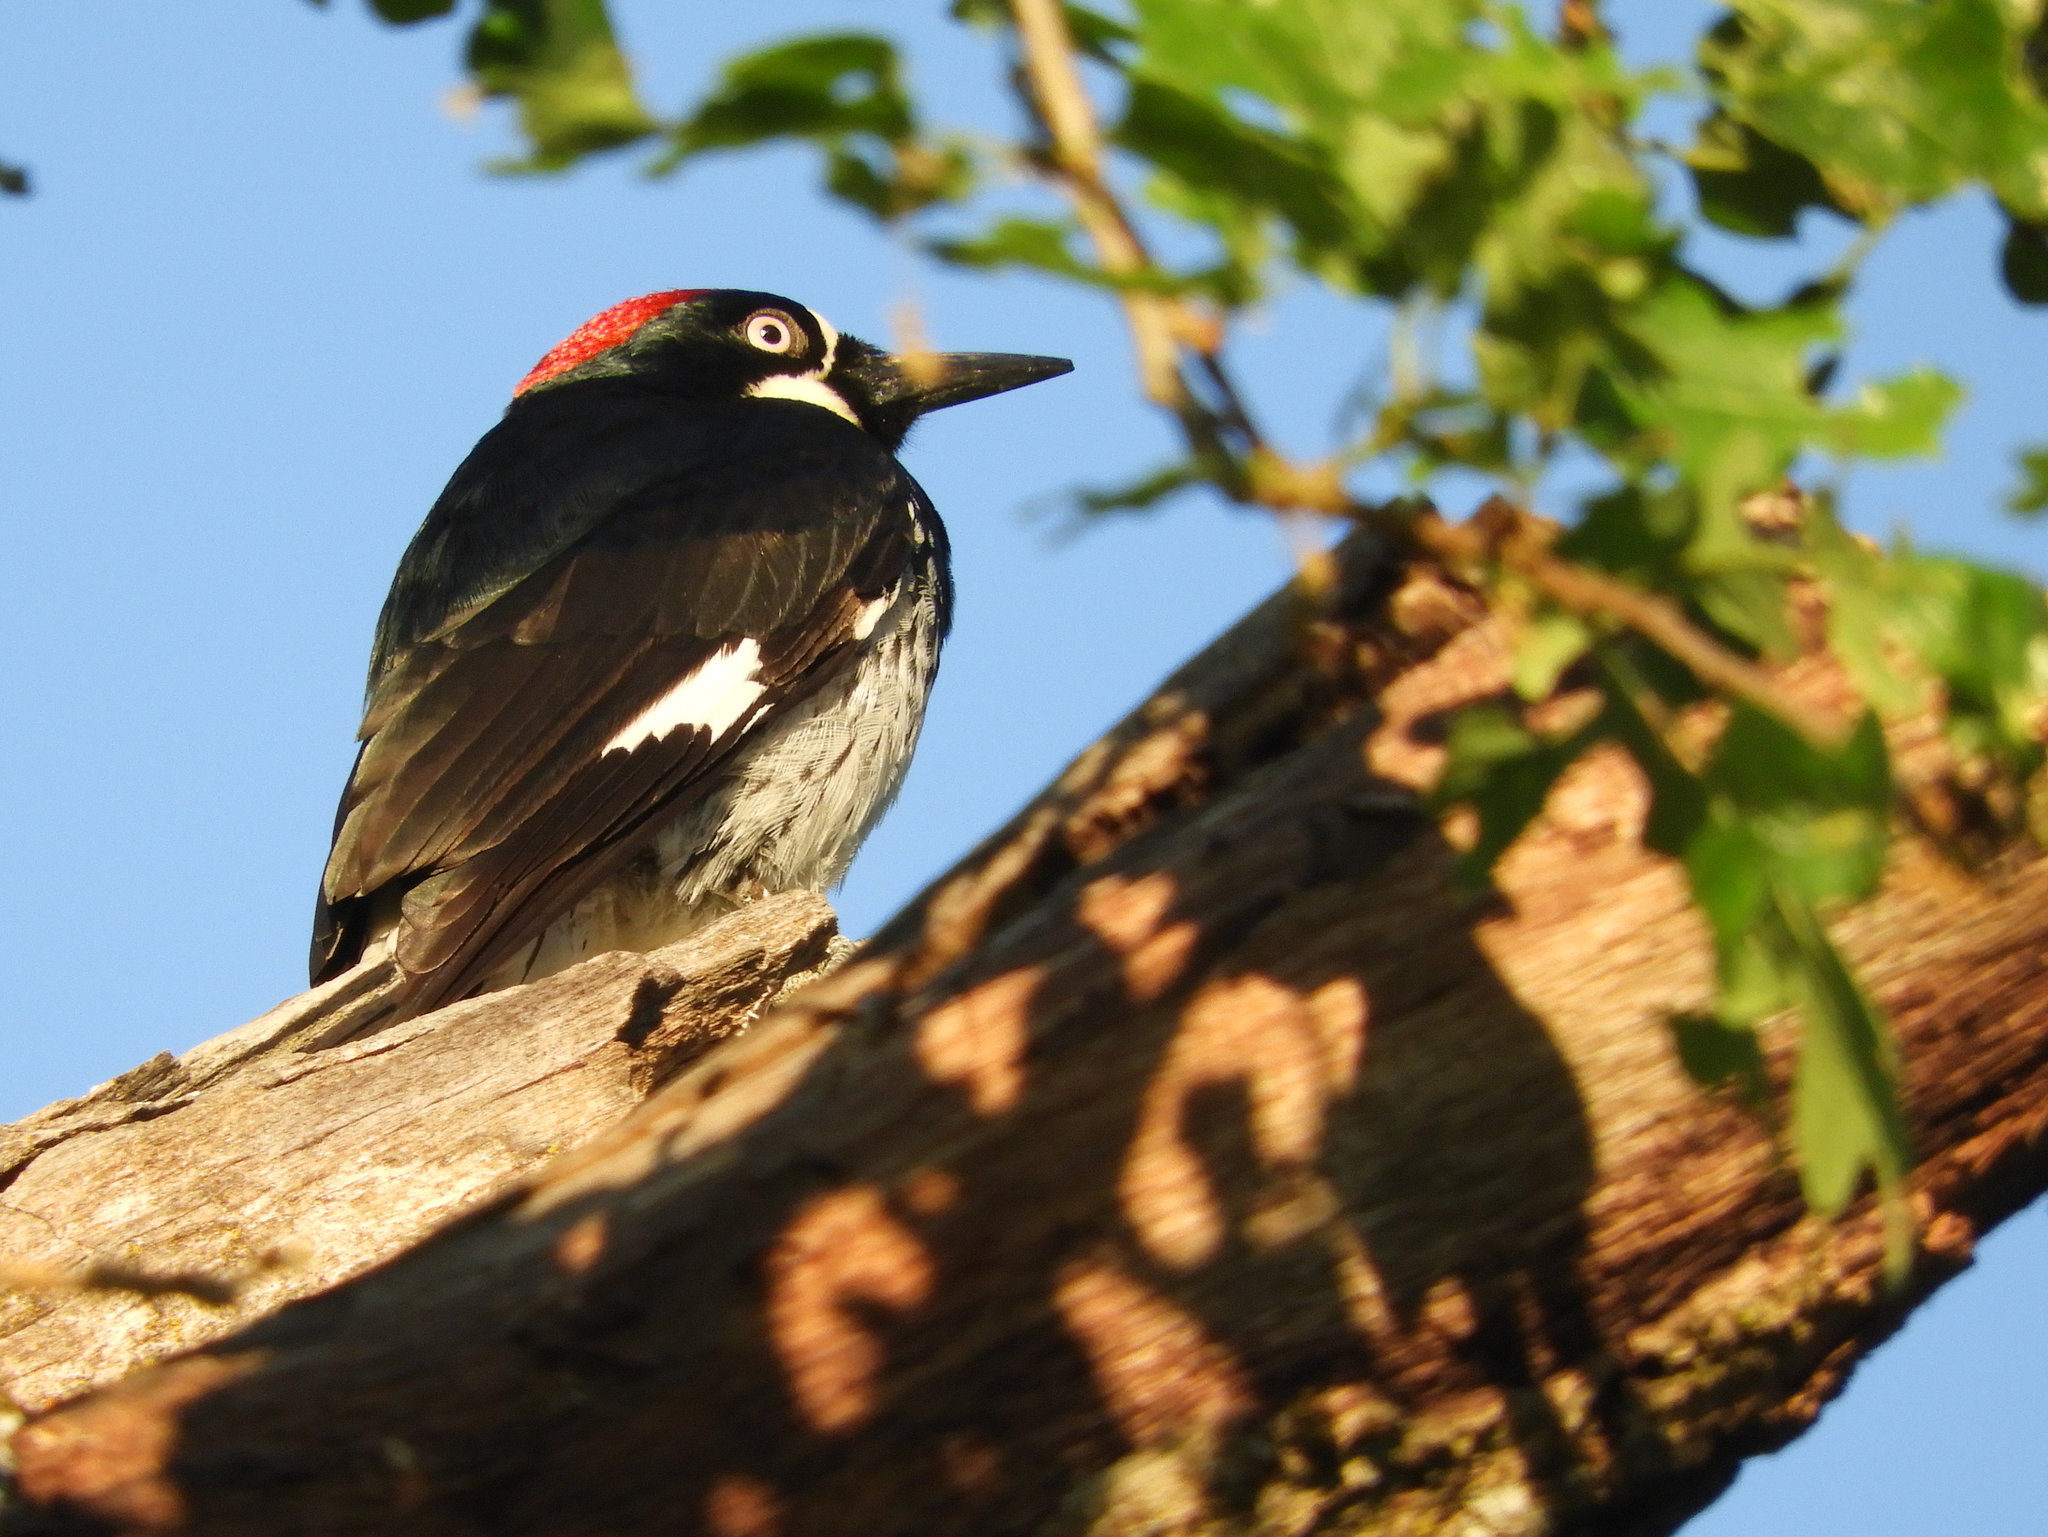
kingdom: Animalia
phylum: Chordata
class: Aves
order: Piciformes
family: Picidae
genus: Melanerpes
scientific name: Melanerpes formicivorus
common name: Acorn woodpecker
